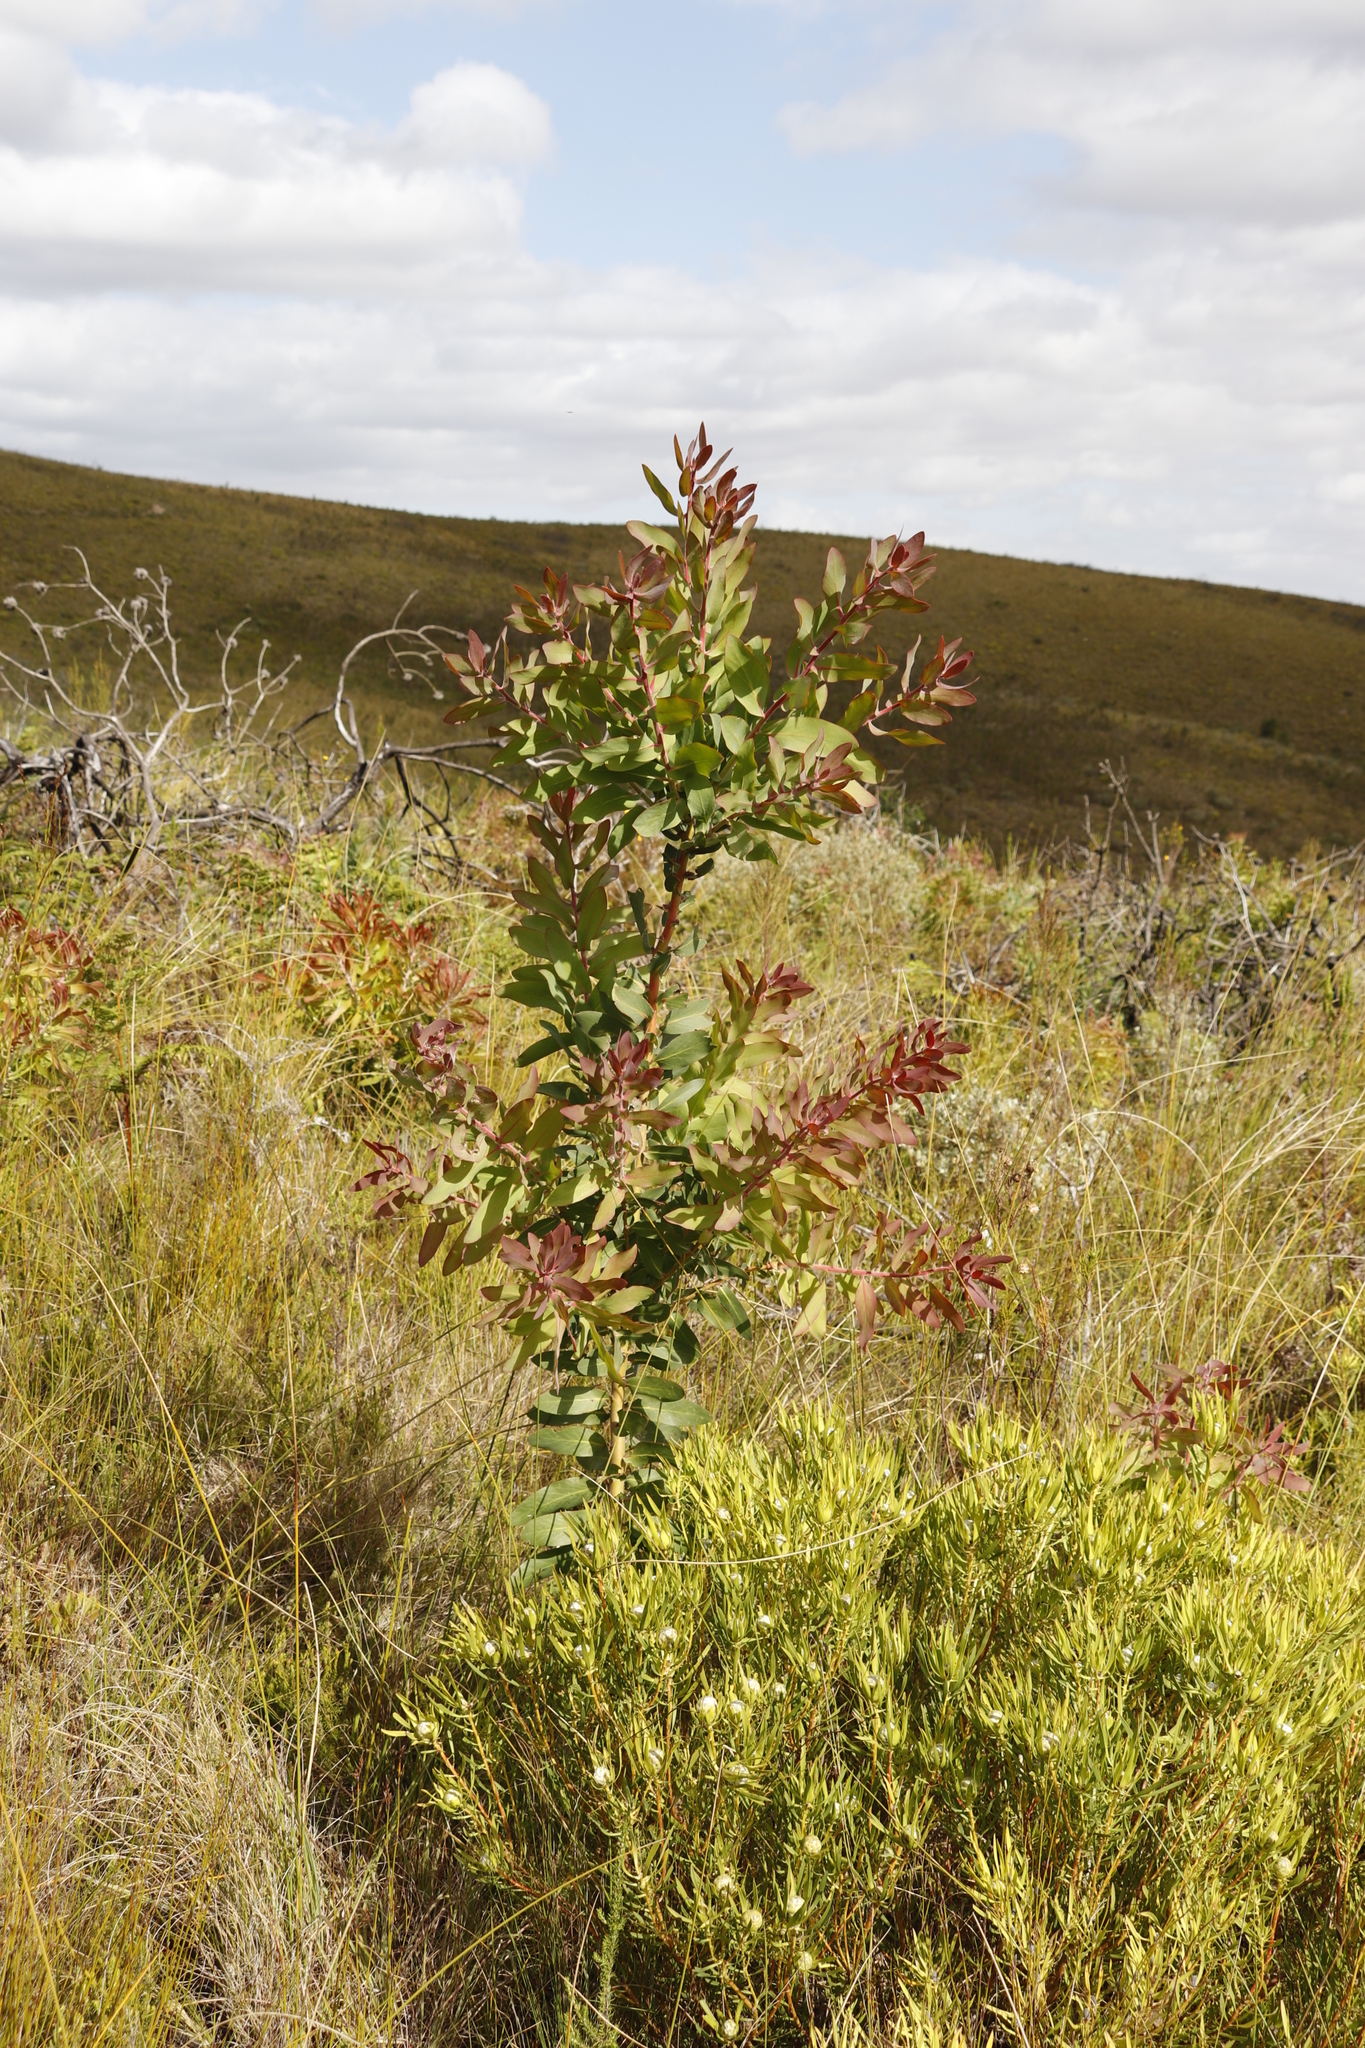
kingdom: Plantae
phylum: Tracheophyta
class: Magnoliopsida
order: Proteales
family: Proteaceae
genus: Protea
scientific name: Protea aurea
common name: Shuttlecock sugarbush
